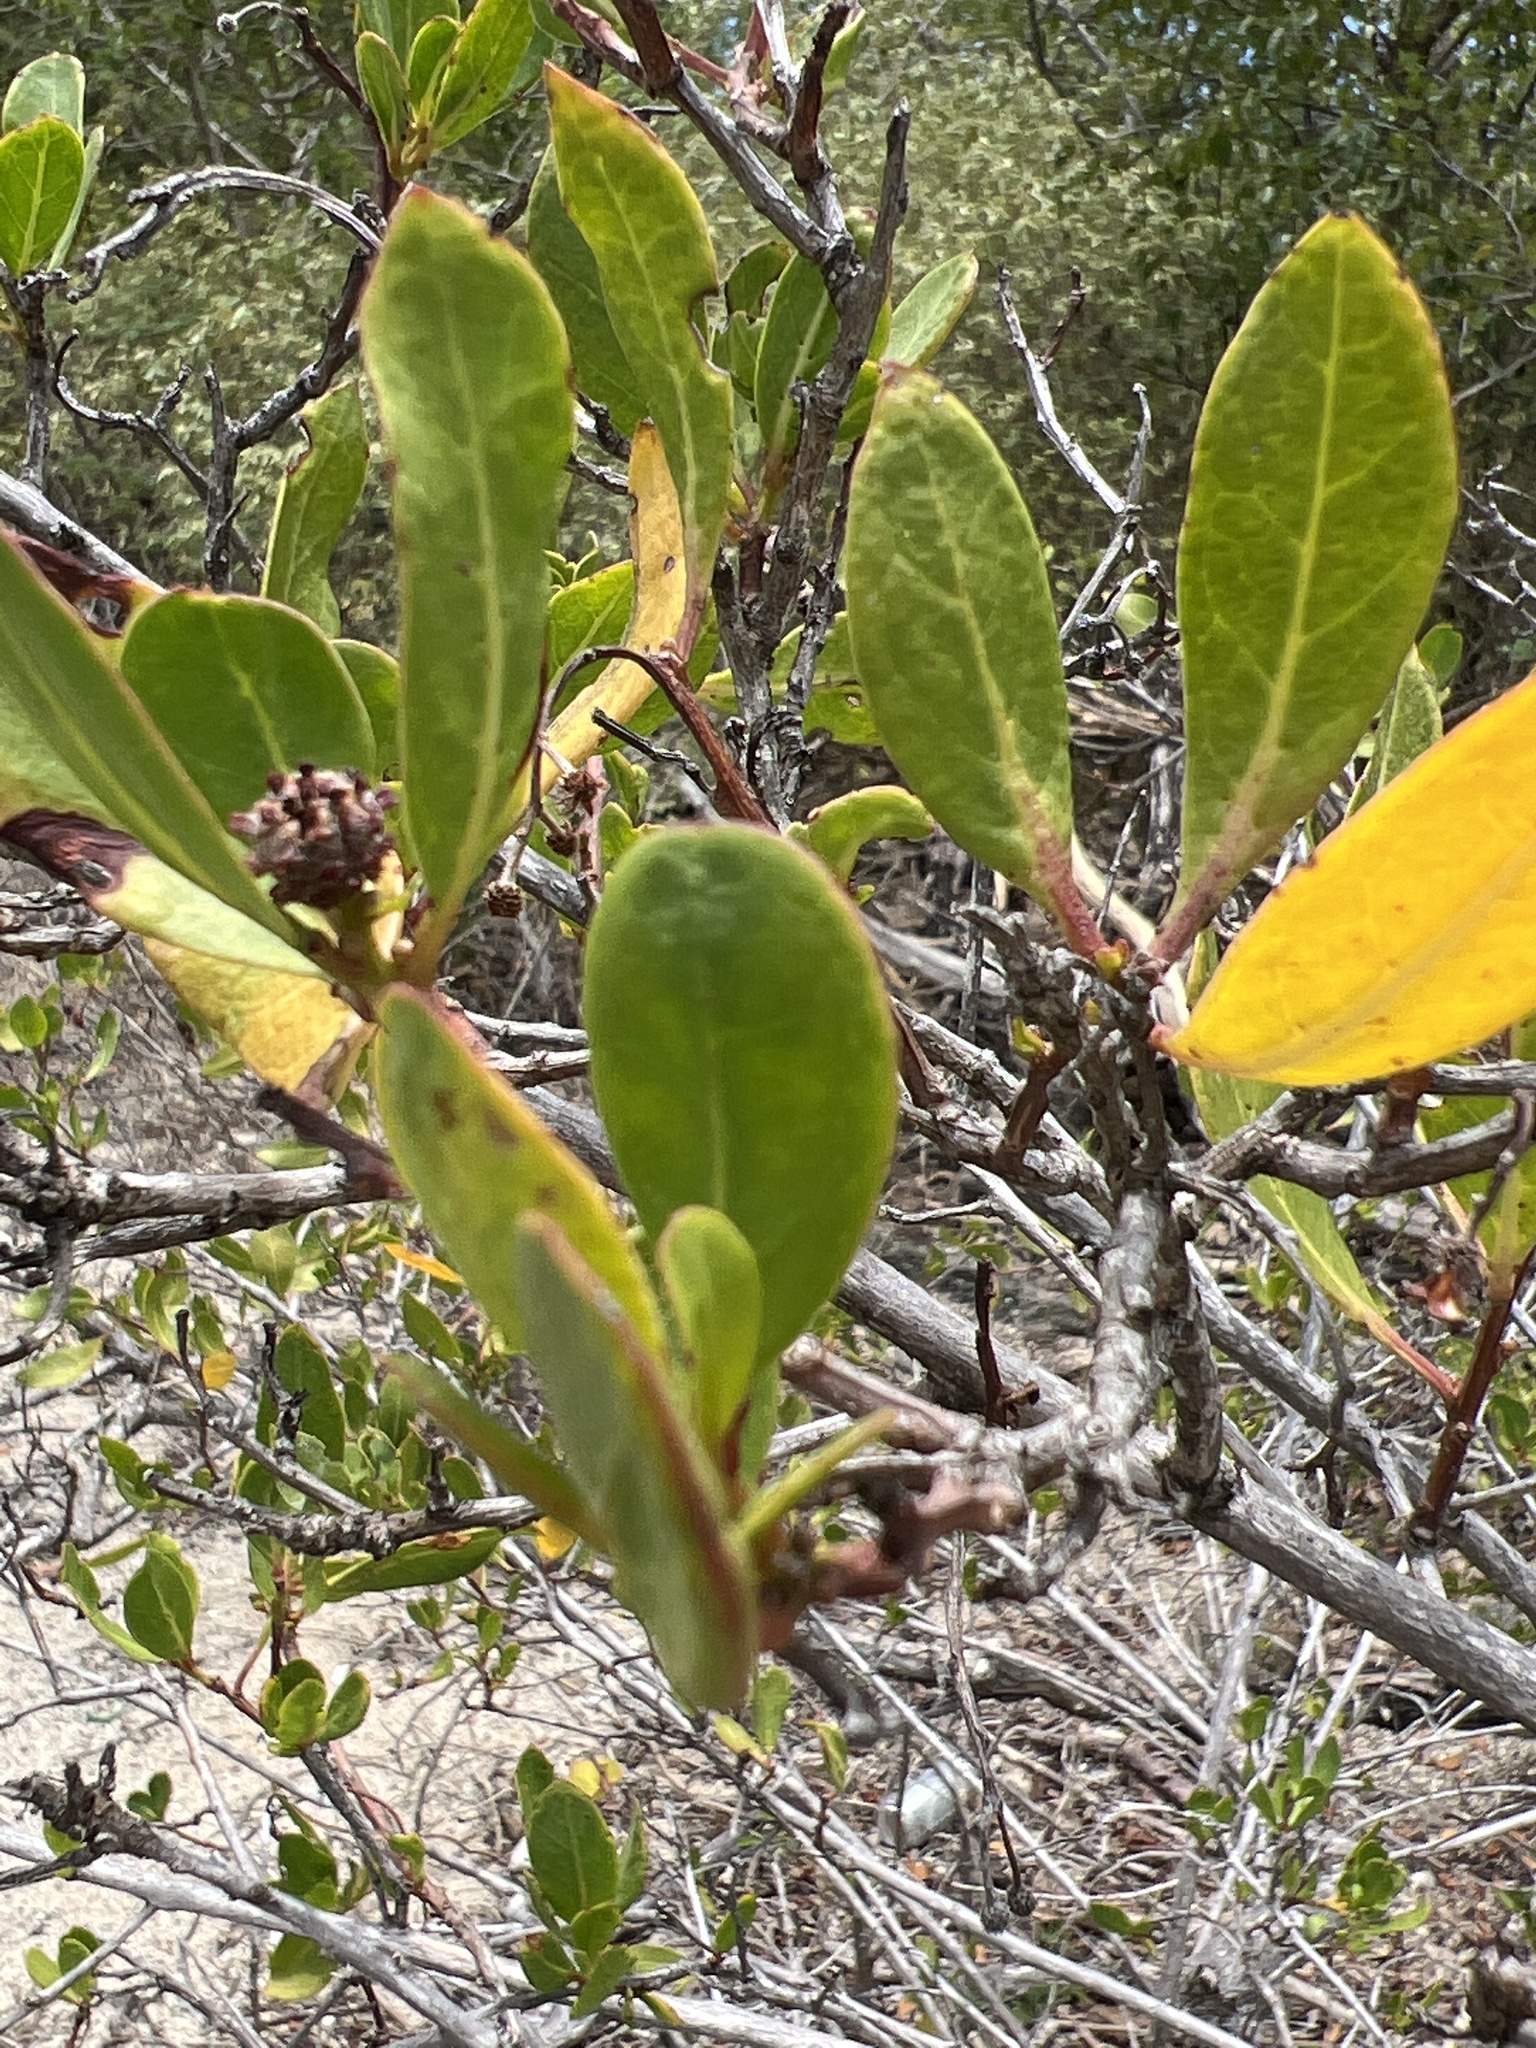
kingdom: Plantae
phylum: Tracheophyta
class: Magnoliopsida
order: Myrtales
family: Combretaceae
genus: Conocarpus
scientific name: Conocarpus erectus
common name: Button mangrove
